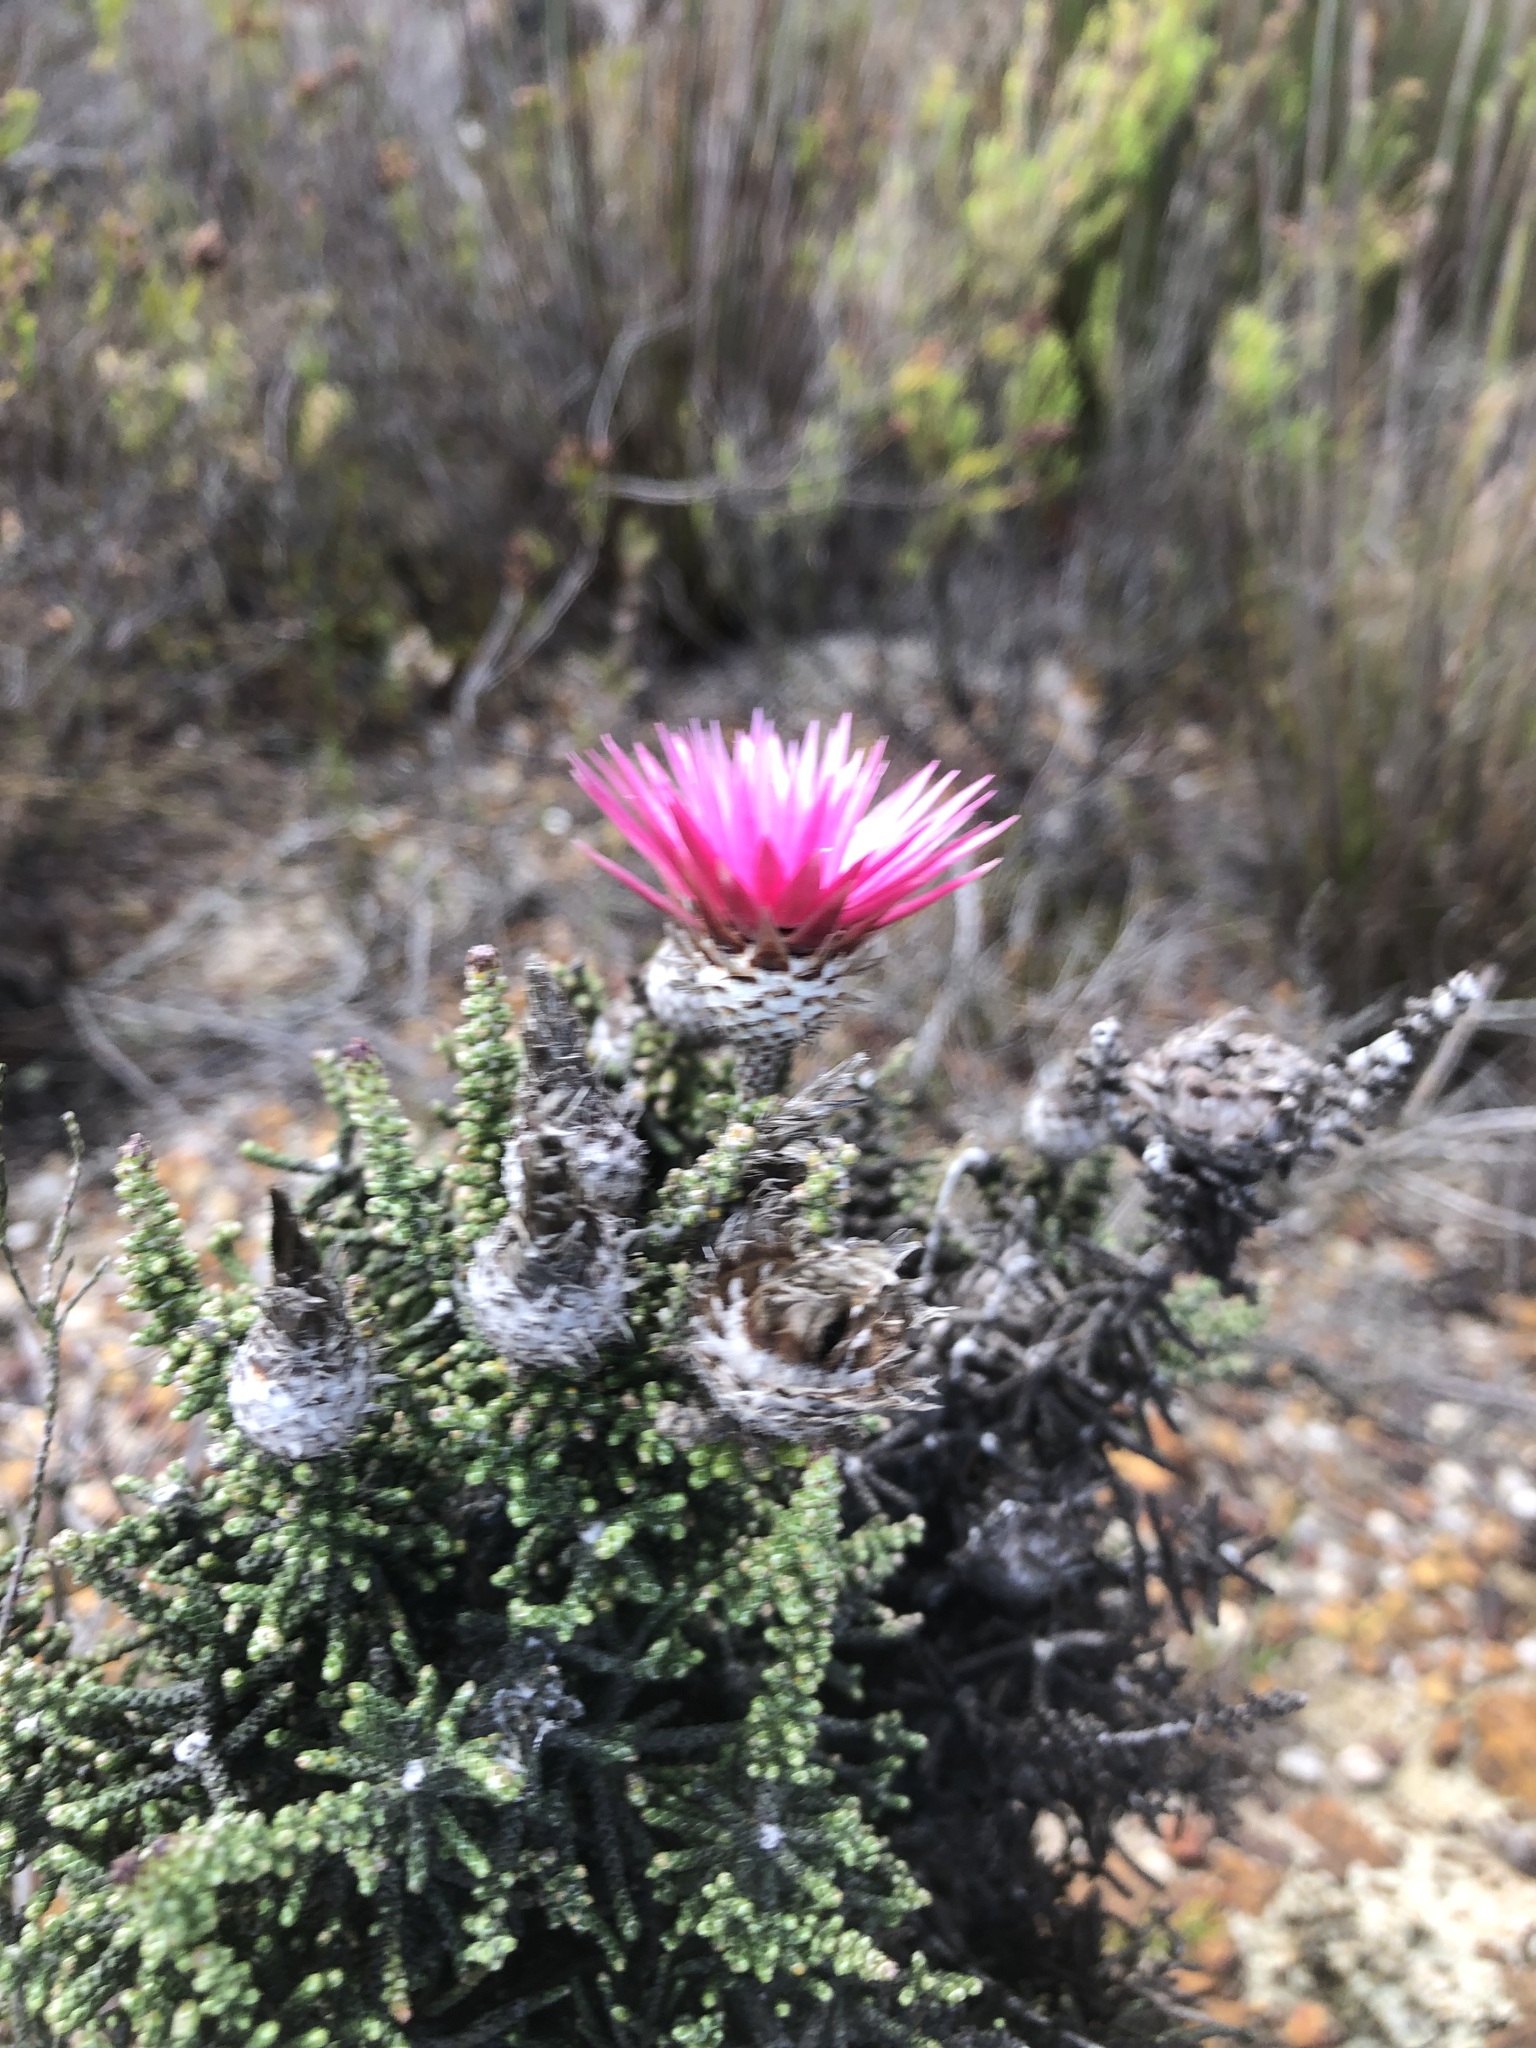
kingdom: Plantae
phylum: Tracheophyta
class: Magnoliopsida
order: Asterales
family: Asteraceae
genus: Phaenocoma
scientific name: Phaenocoma prolifera
